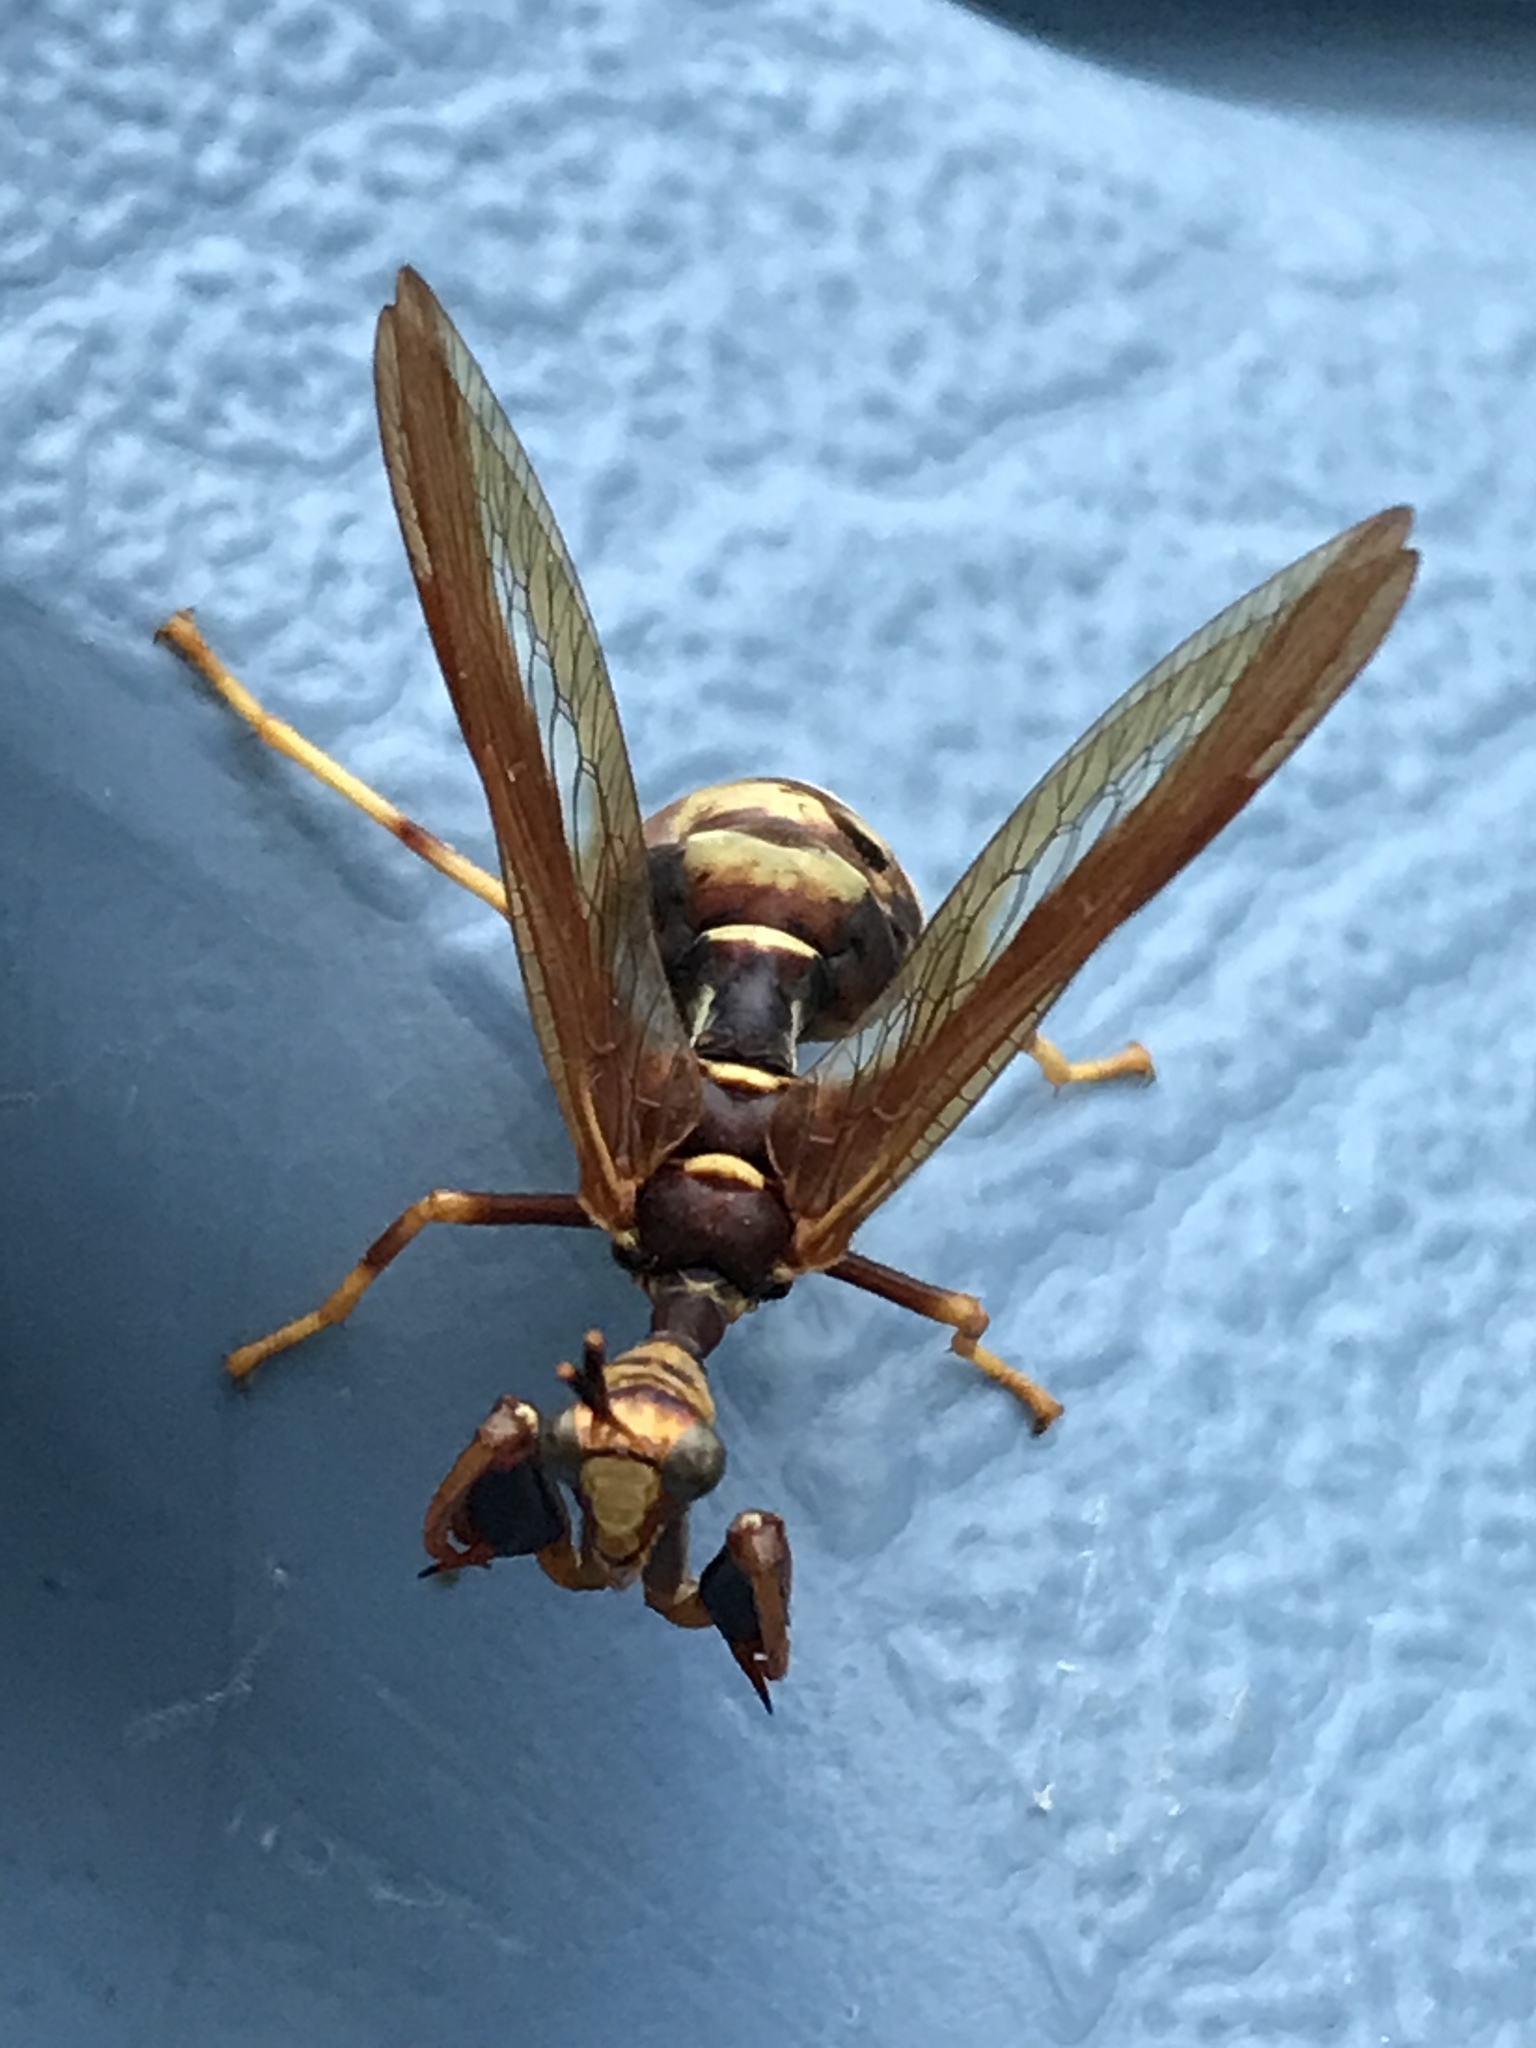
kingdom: Animalia
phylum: Arthropoda
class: Insecta
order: Neuroptera
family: Mantispidae
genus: Climaciella
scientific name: Climaciella brunnea
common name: Brown wasp mantidfly
